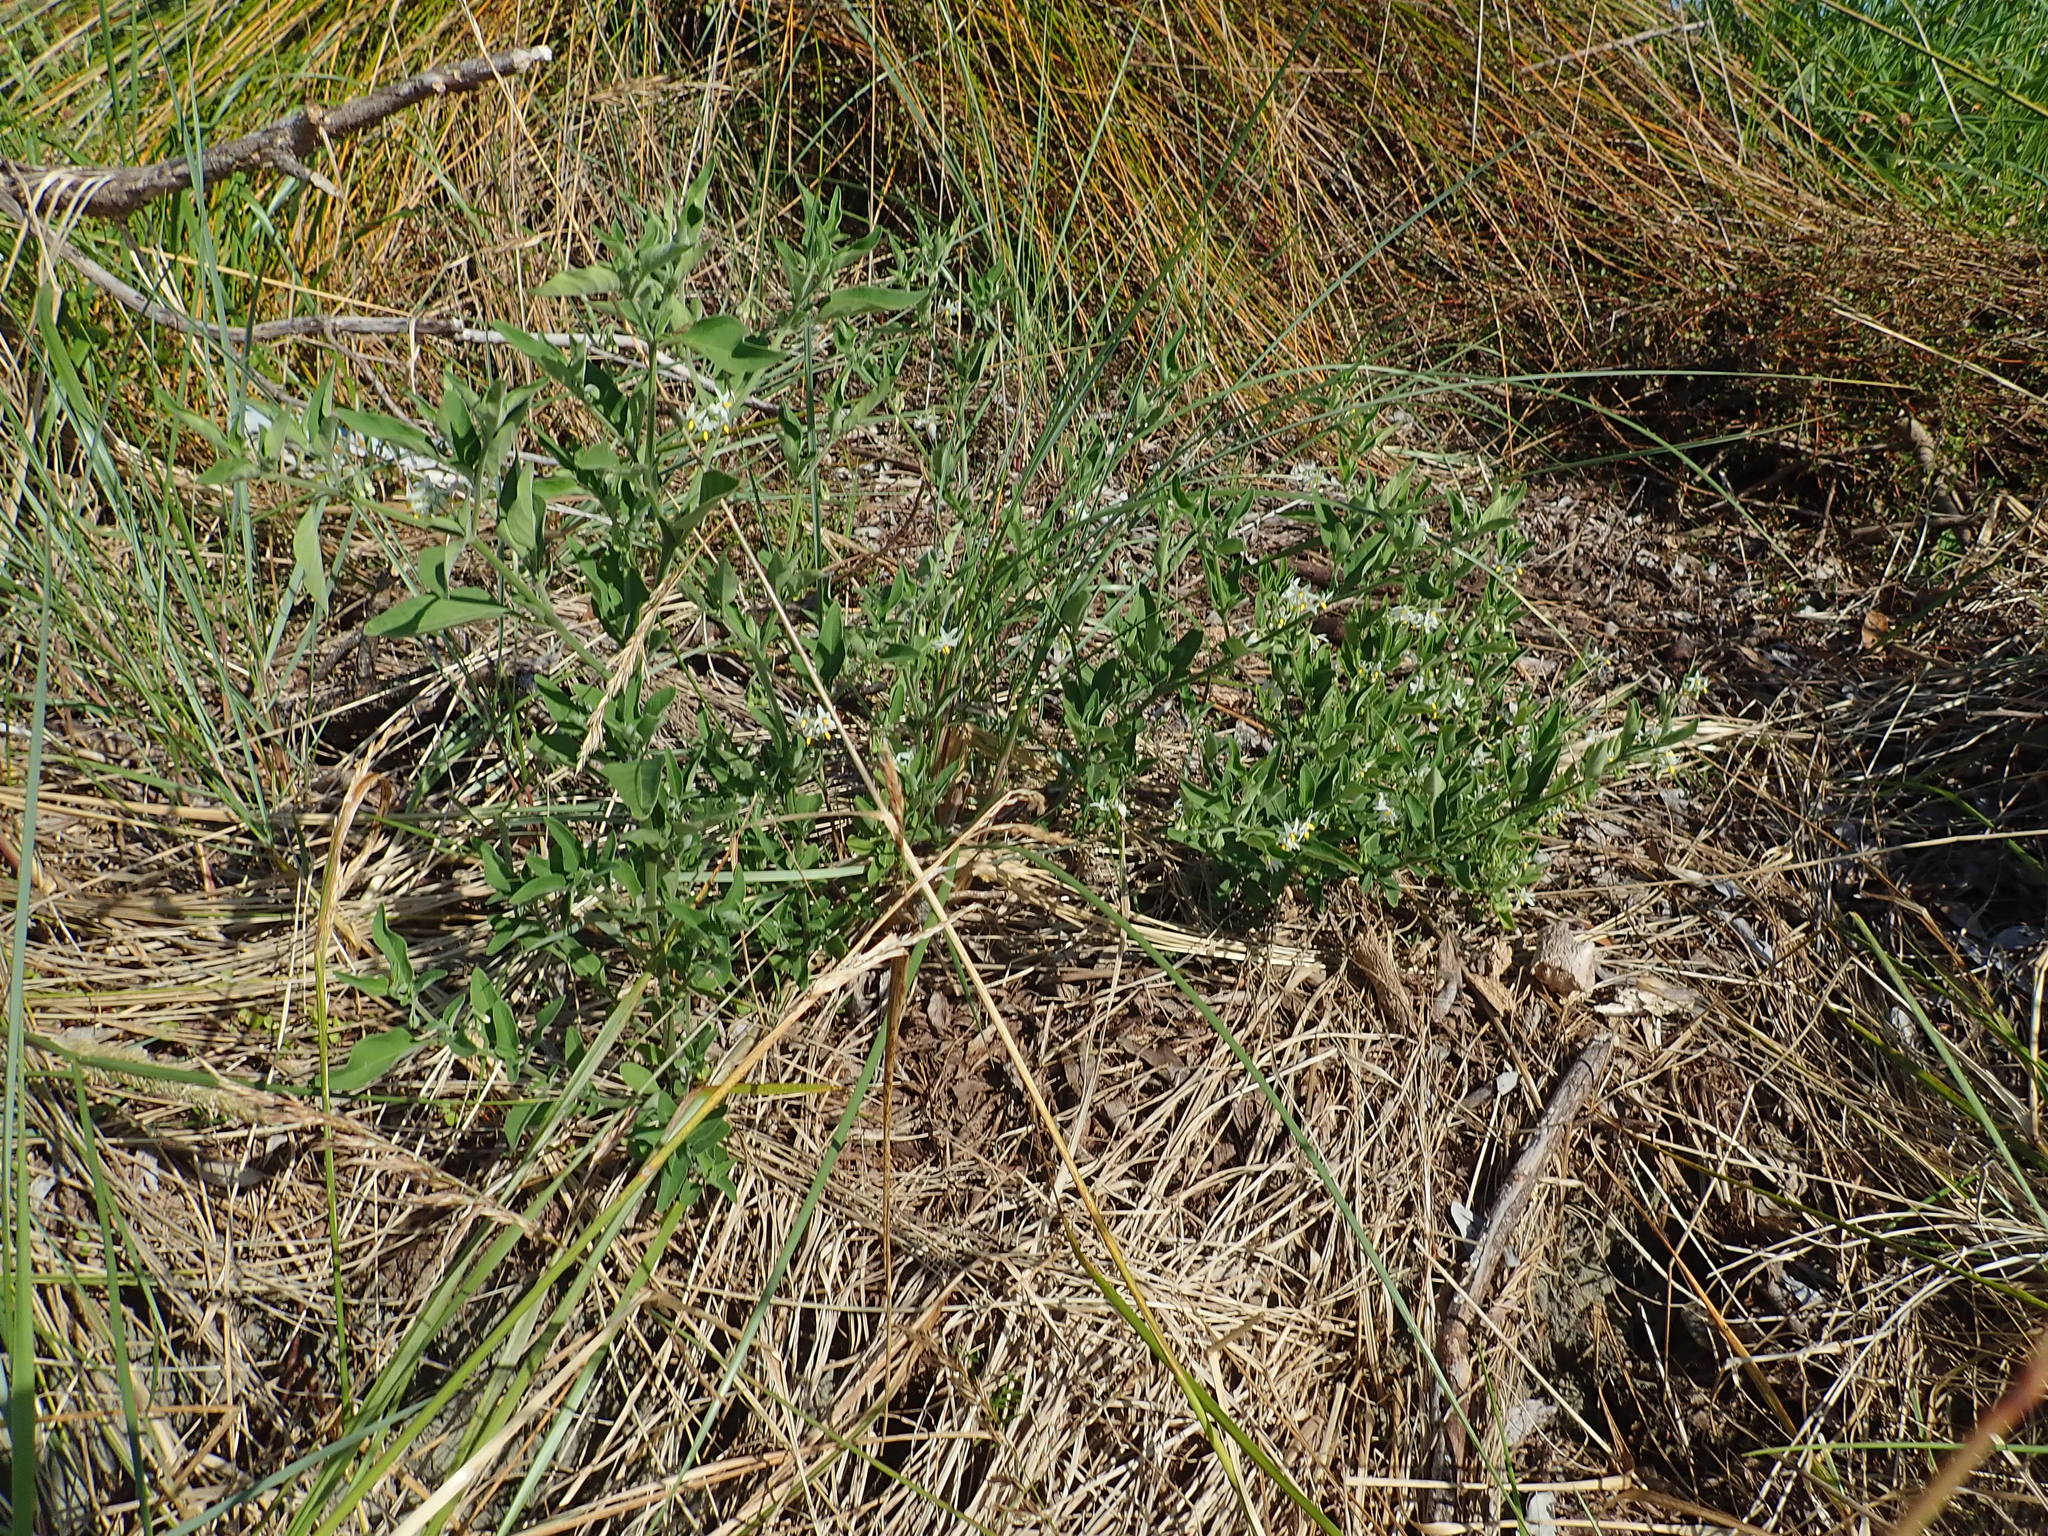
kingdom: Plantae
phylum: Tracheophyta
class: Magnoliopsida
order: Solanales
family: Solanaceae
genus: Solanum
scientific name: Solanum chenopodioides
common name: Tall nightshade
